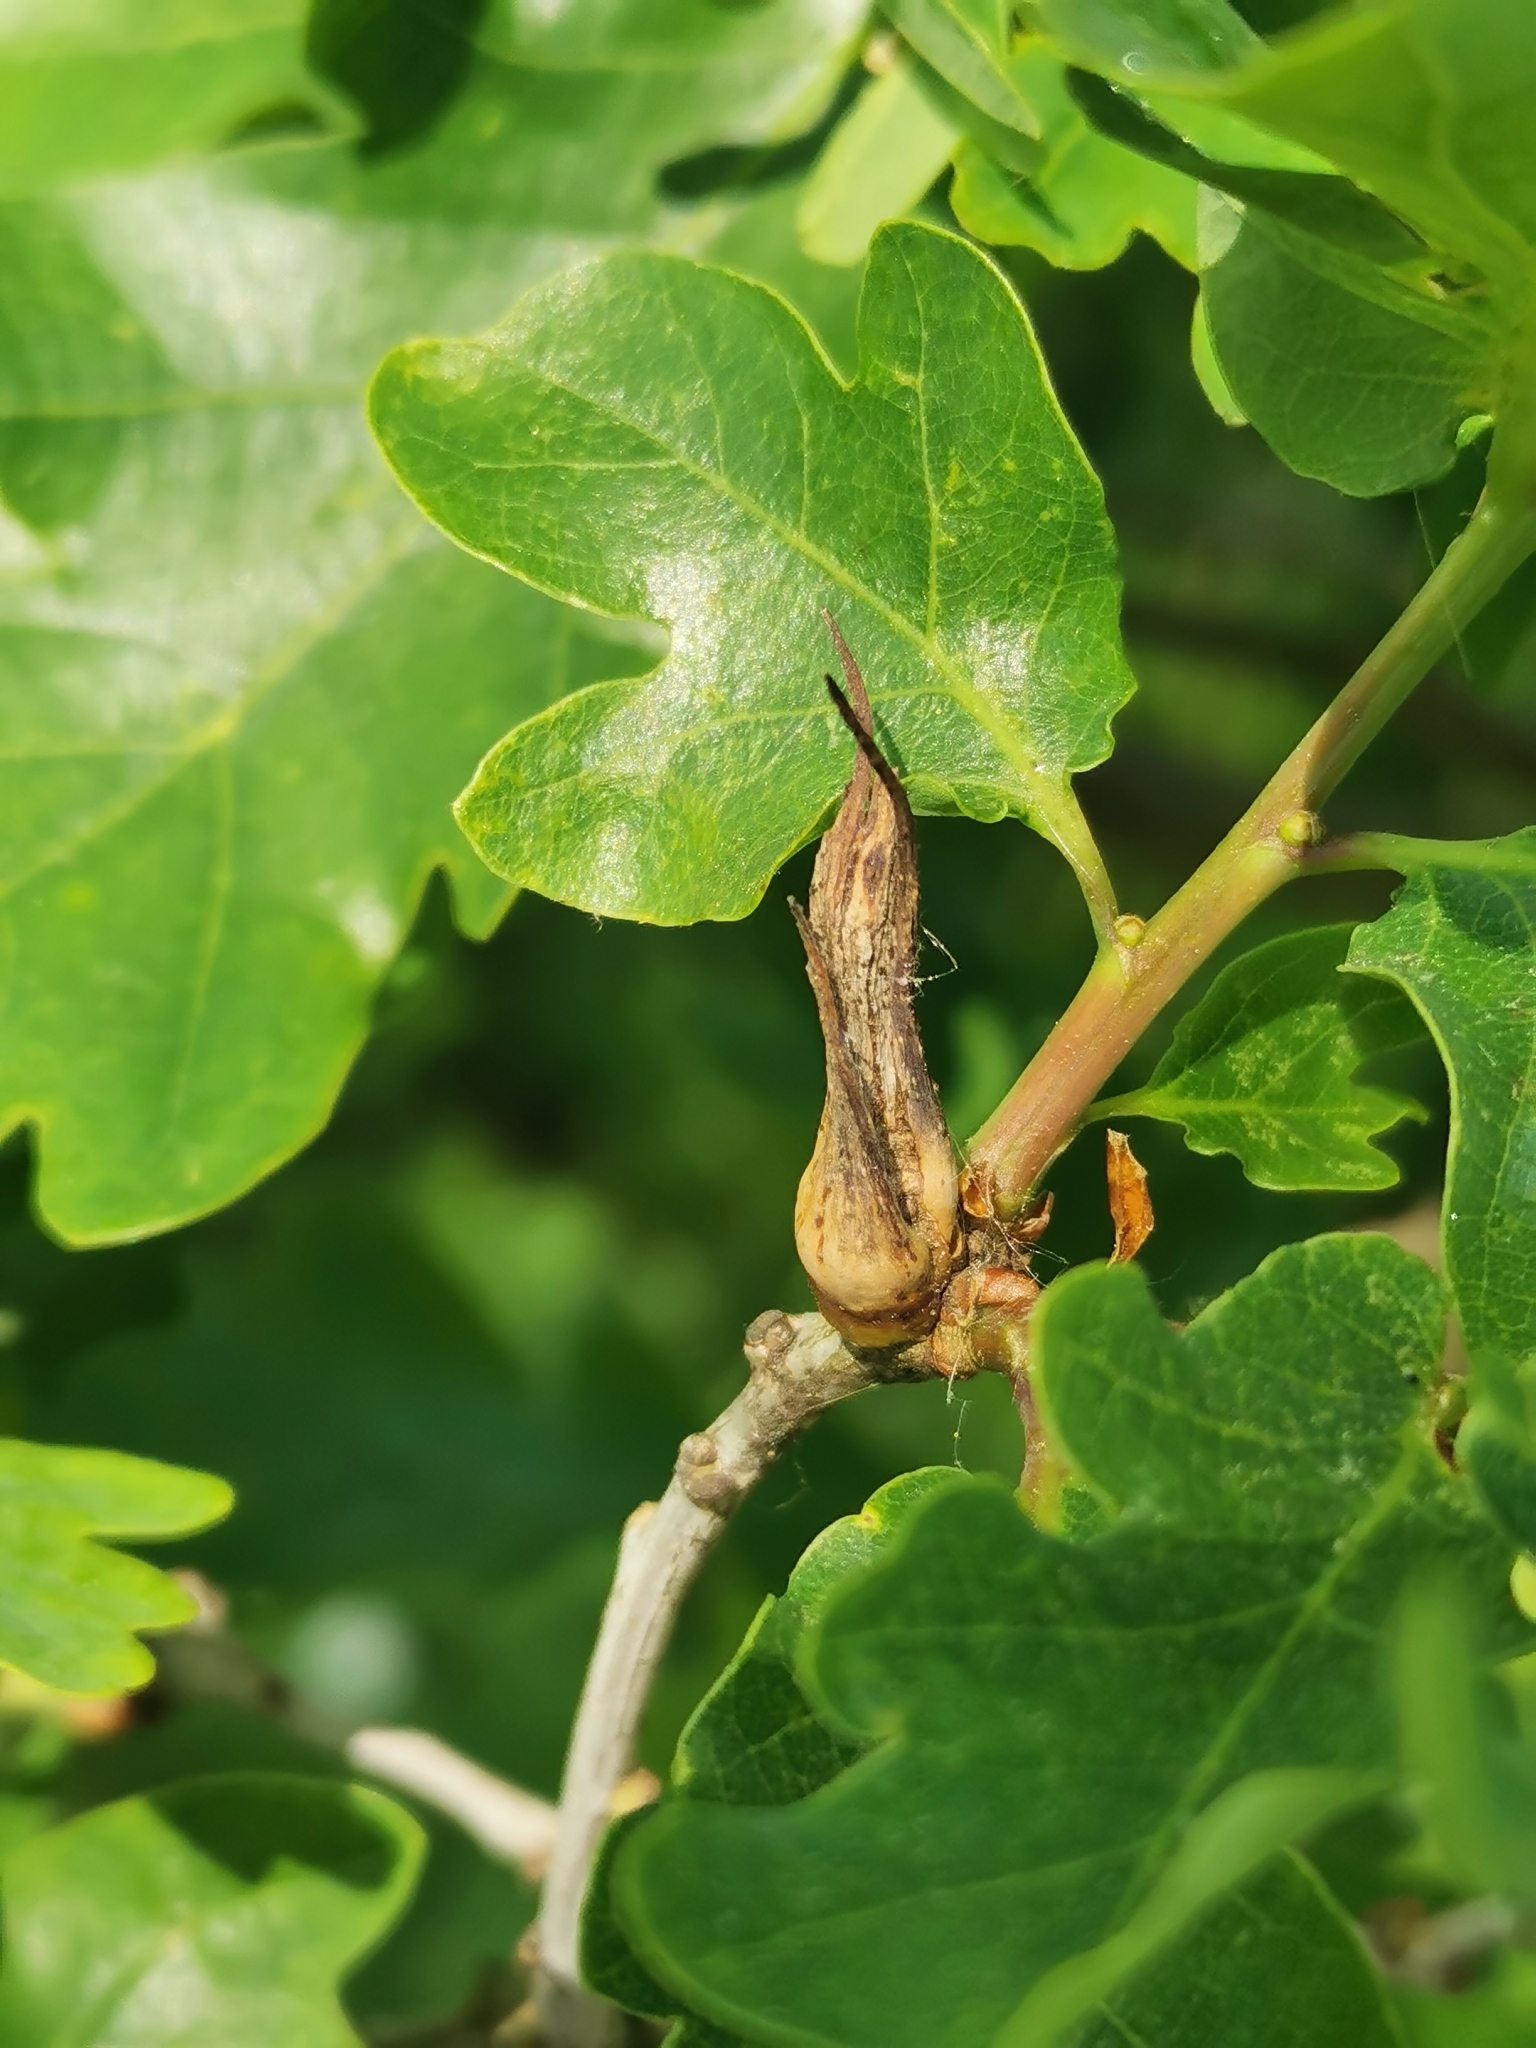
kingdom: Animalia
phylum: Arthropoda
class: Insecta
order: Hymenoptera
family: Cynipidae
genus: Andricus
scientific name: Andricus aries
